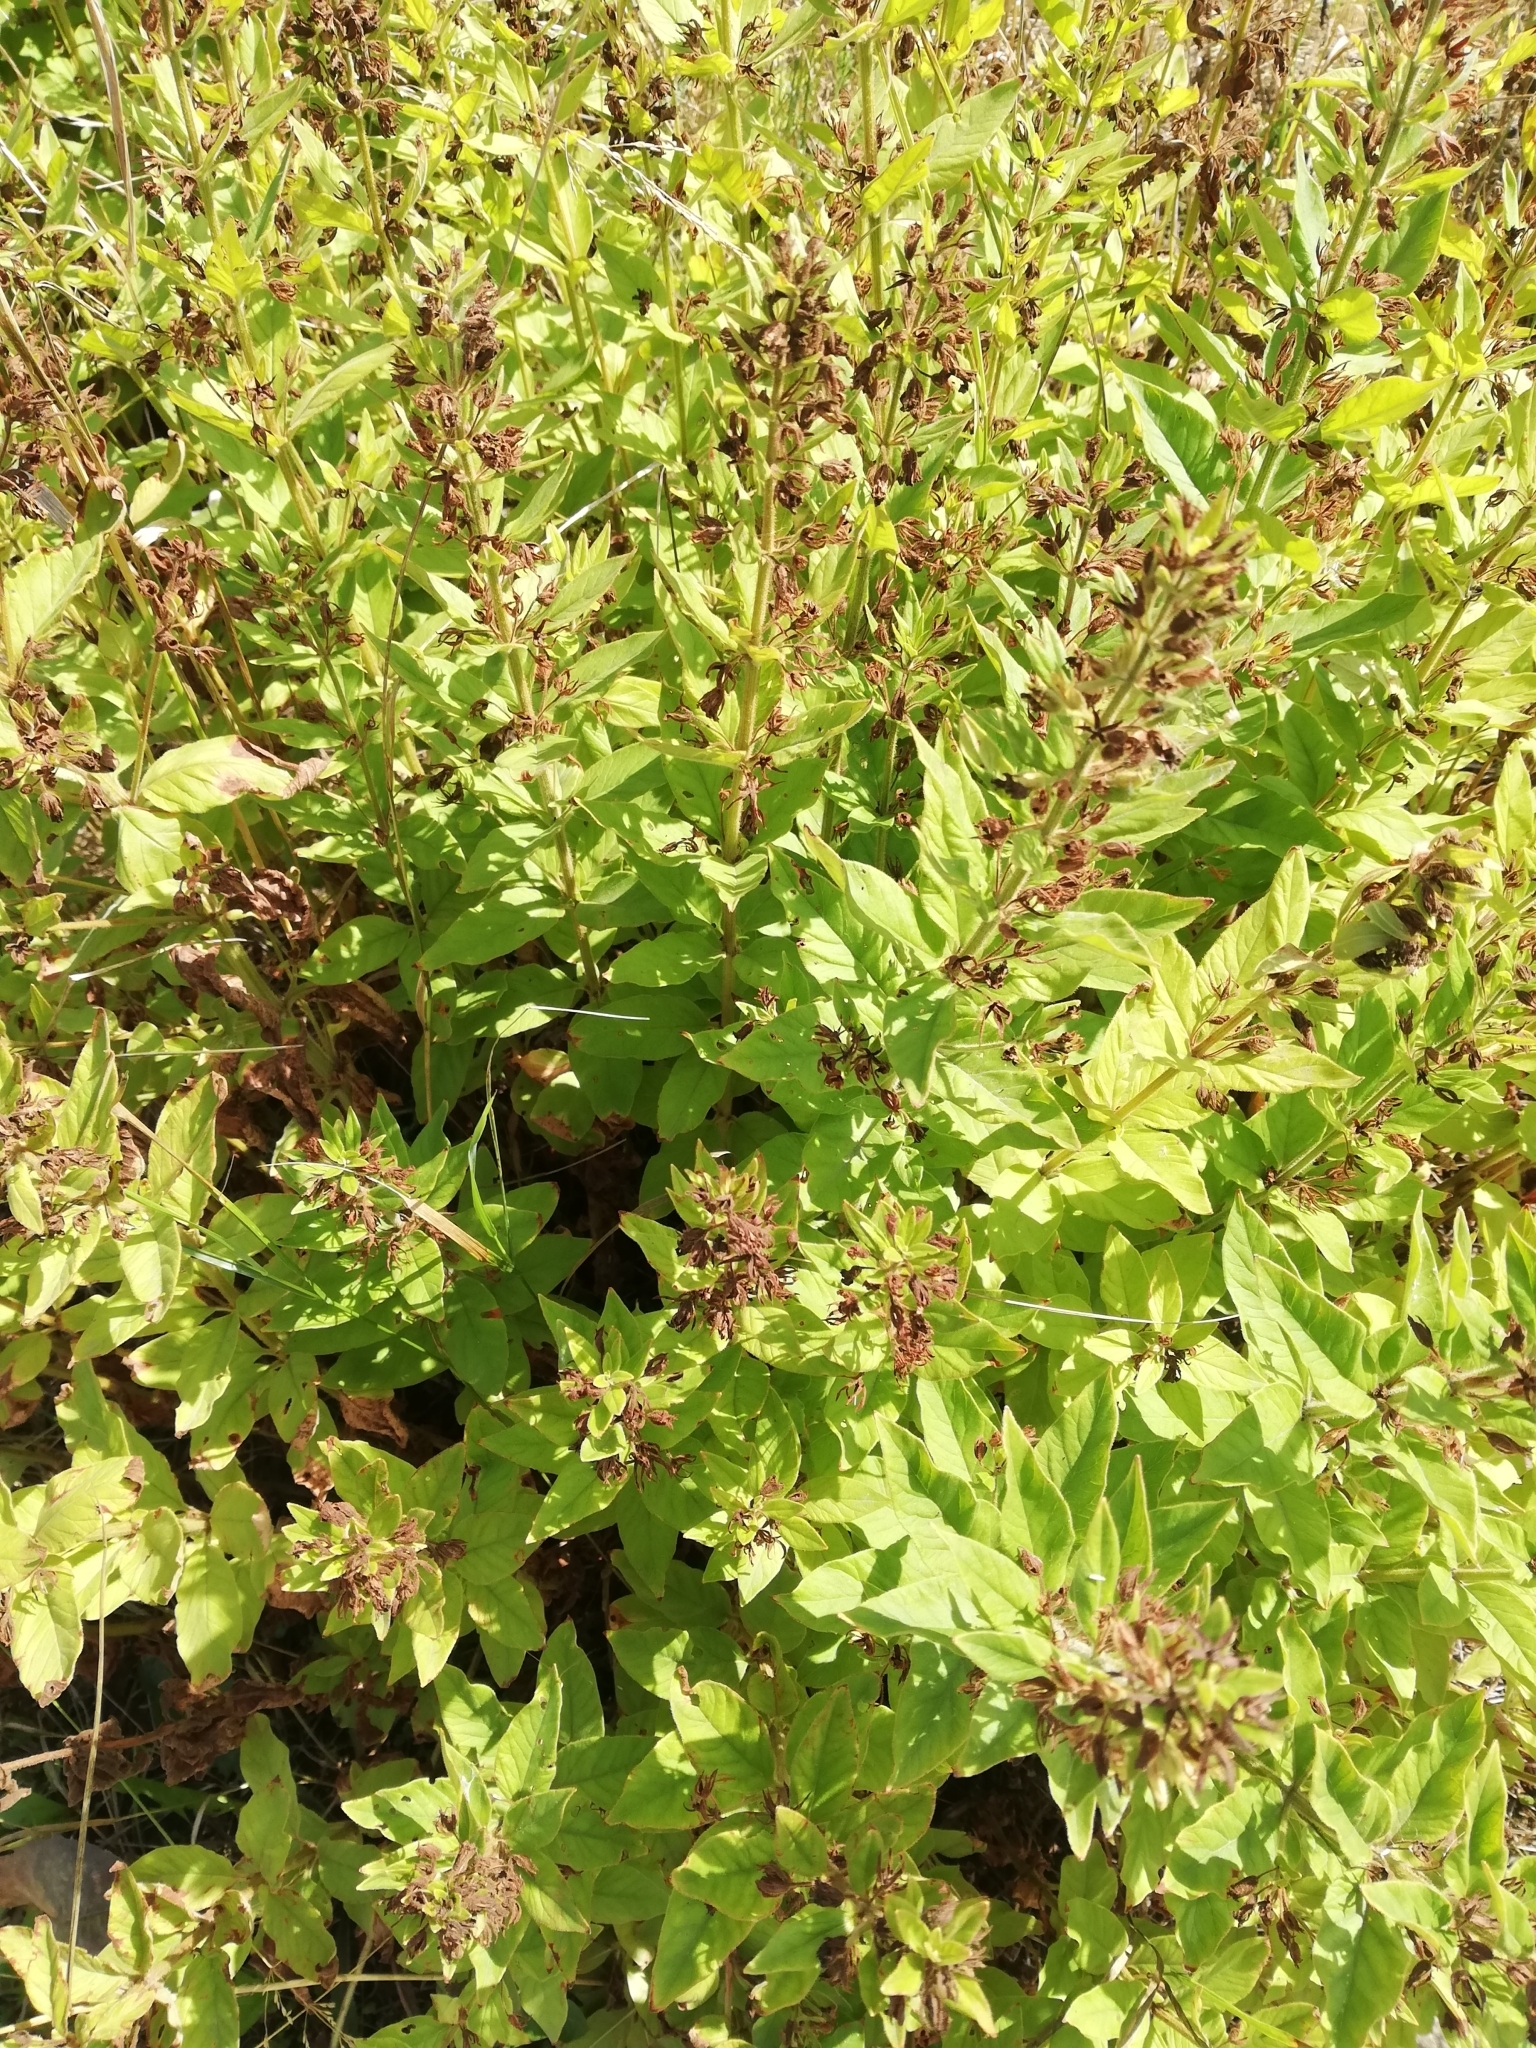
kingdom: Plantae
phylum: Tracheophyta
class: Magnoliopsida
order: Ericales
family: Primulaceae
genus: Lysimachia
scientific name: Lysimachia punctata
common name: Dotted loosestrife
